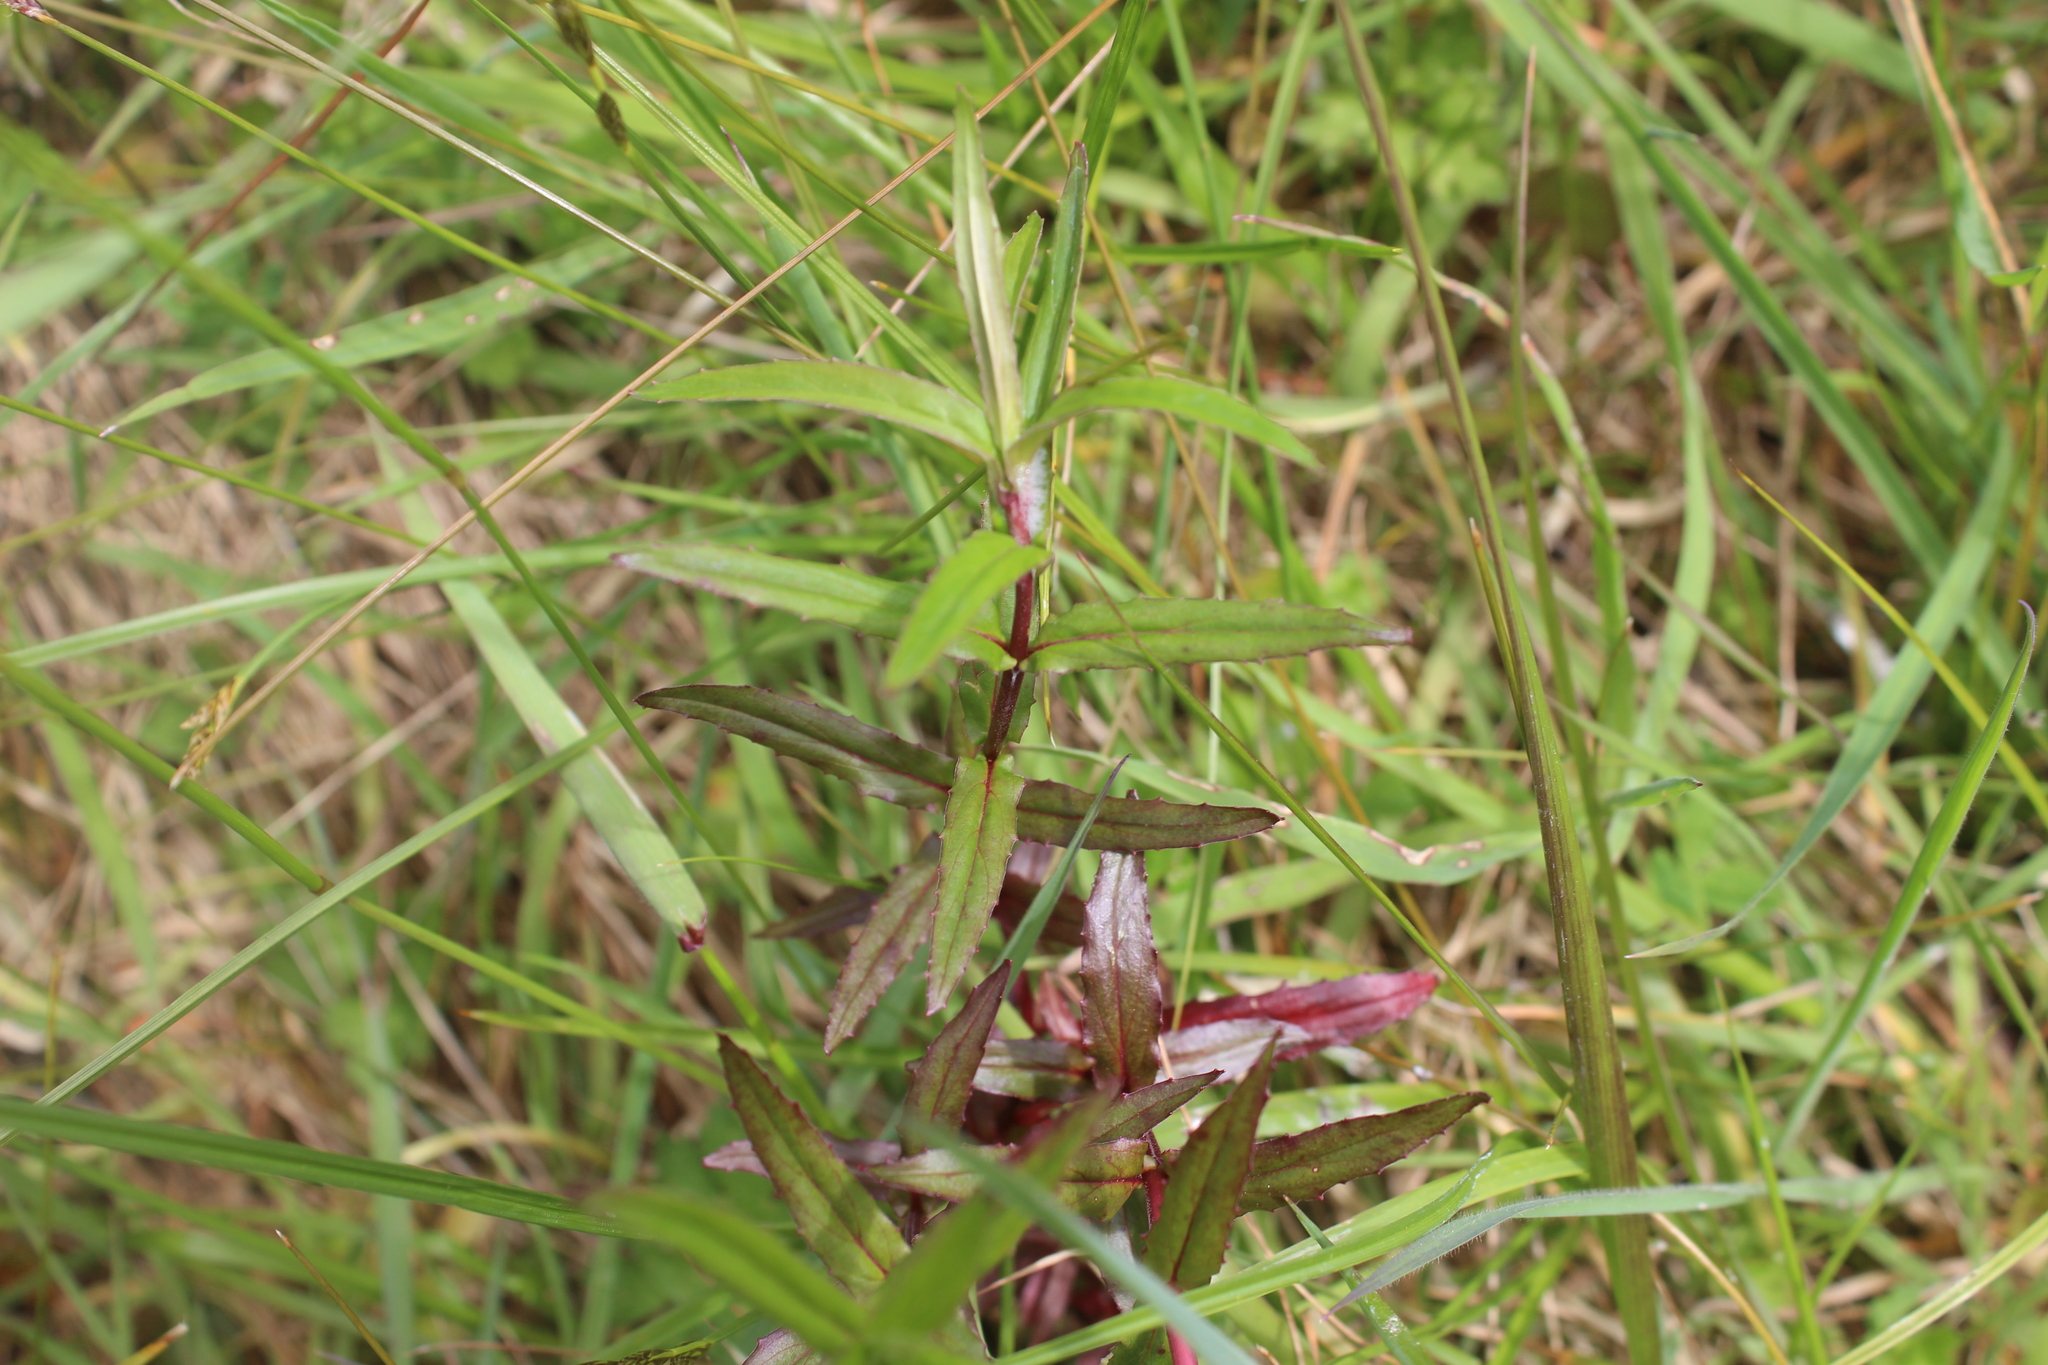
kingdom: Plantae
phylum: Tracheophyta
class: Magnoliopsida
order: Myrtales
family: Onagraceae
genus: Epilobium
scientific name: Epilobium pallidiflorum
